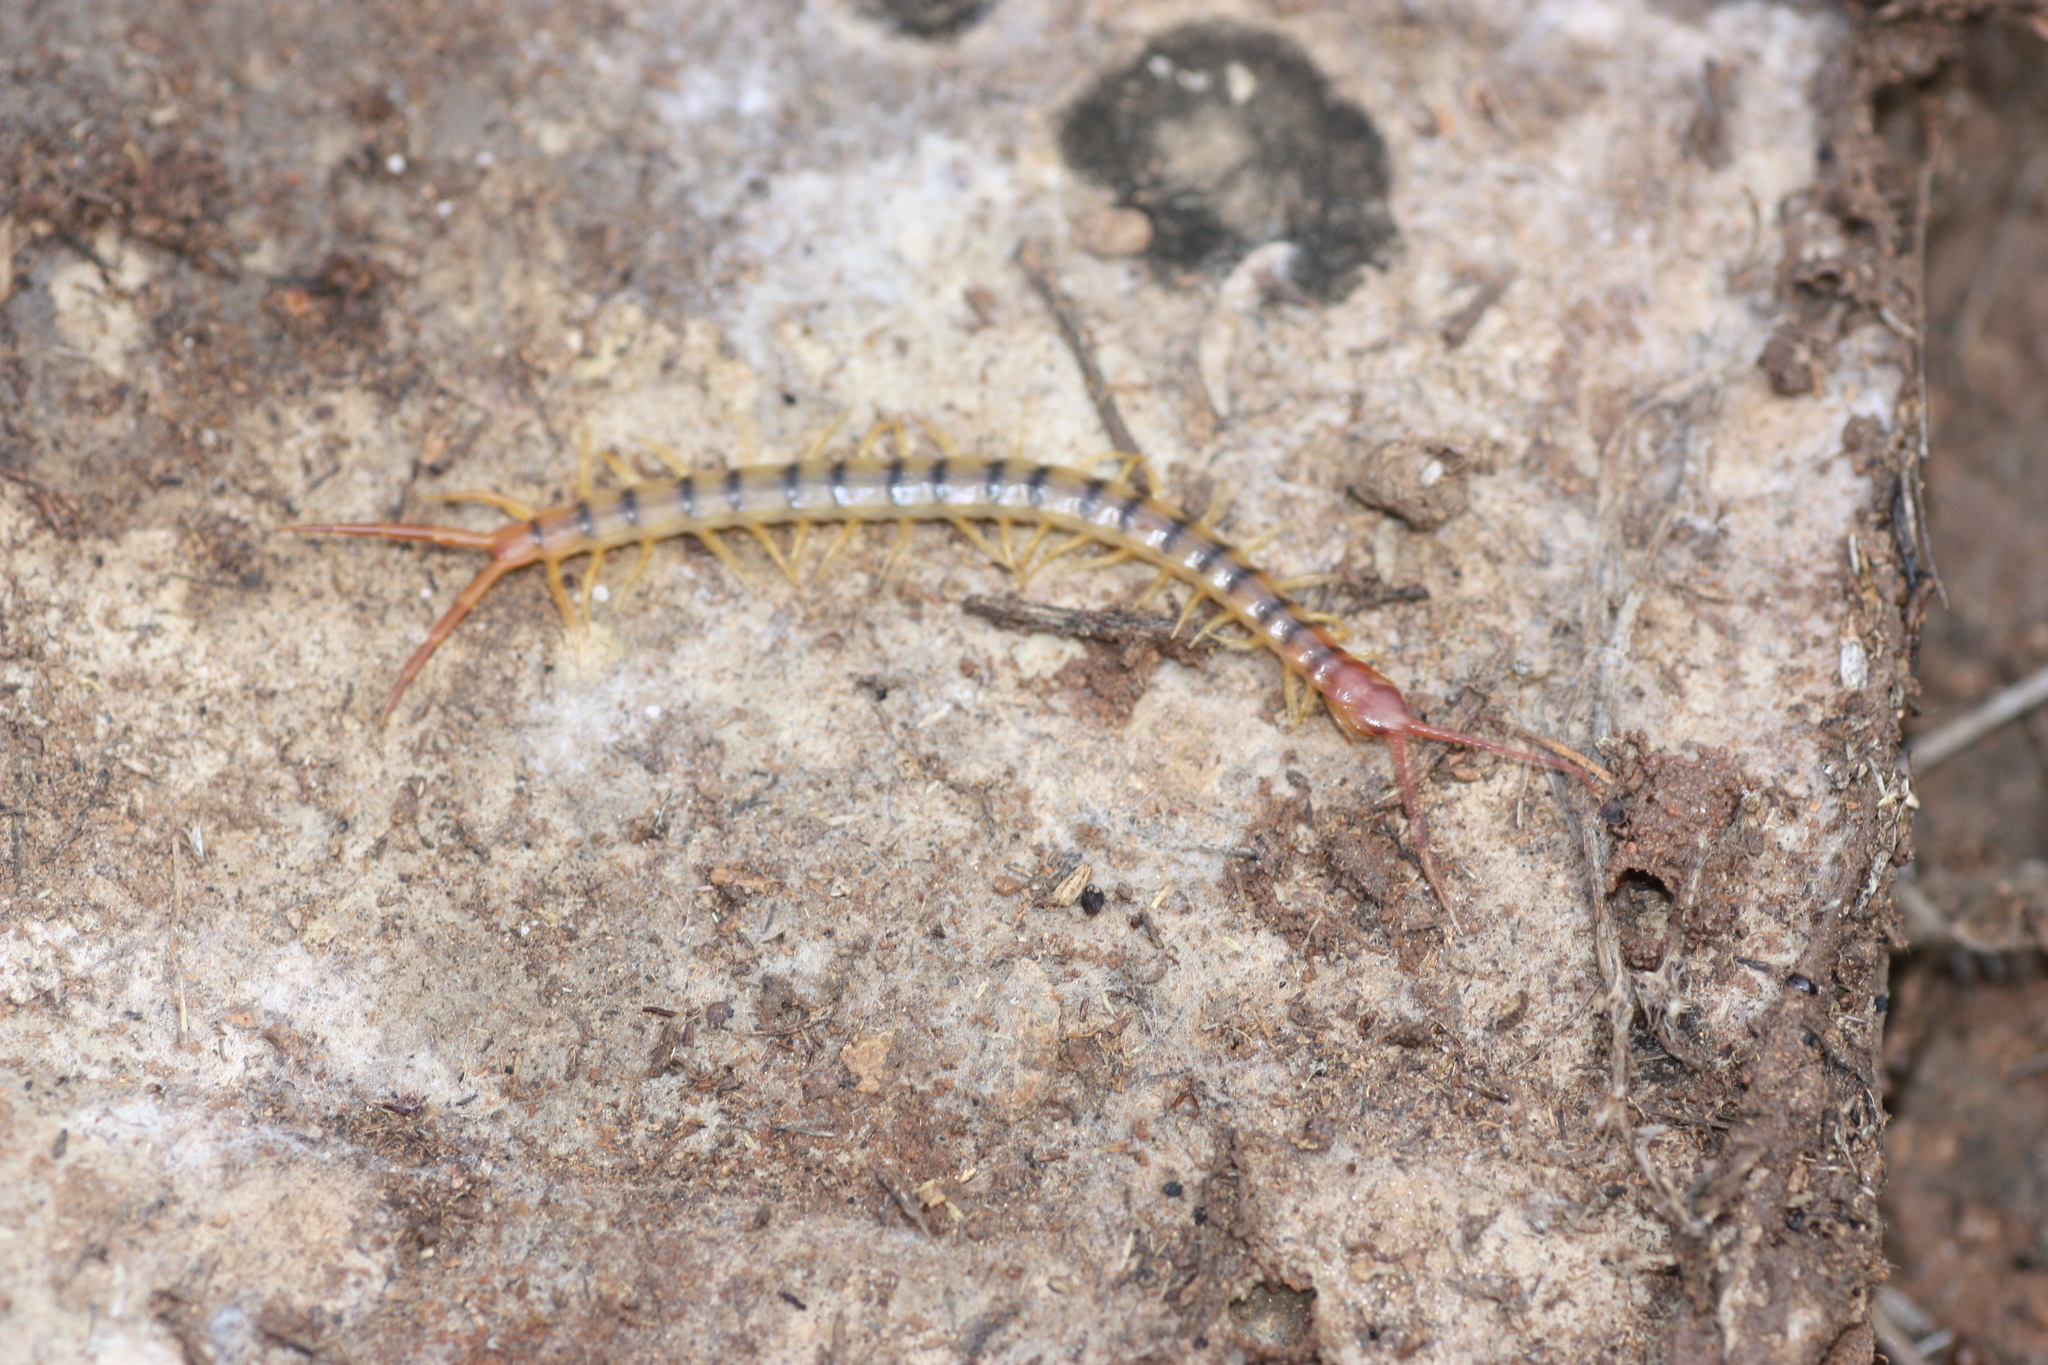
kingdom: Animalia
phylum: Arthropoda
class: Chilopoda
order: Scolopendromorpha
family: Scolopendridae
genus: Scolopendra
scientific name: Scolopendra polymorpha
